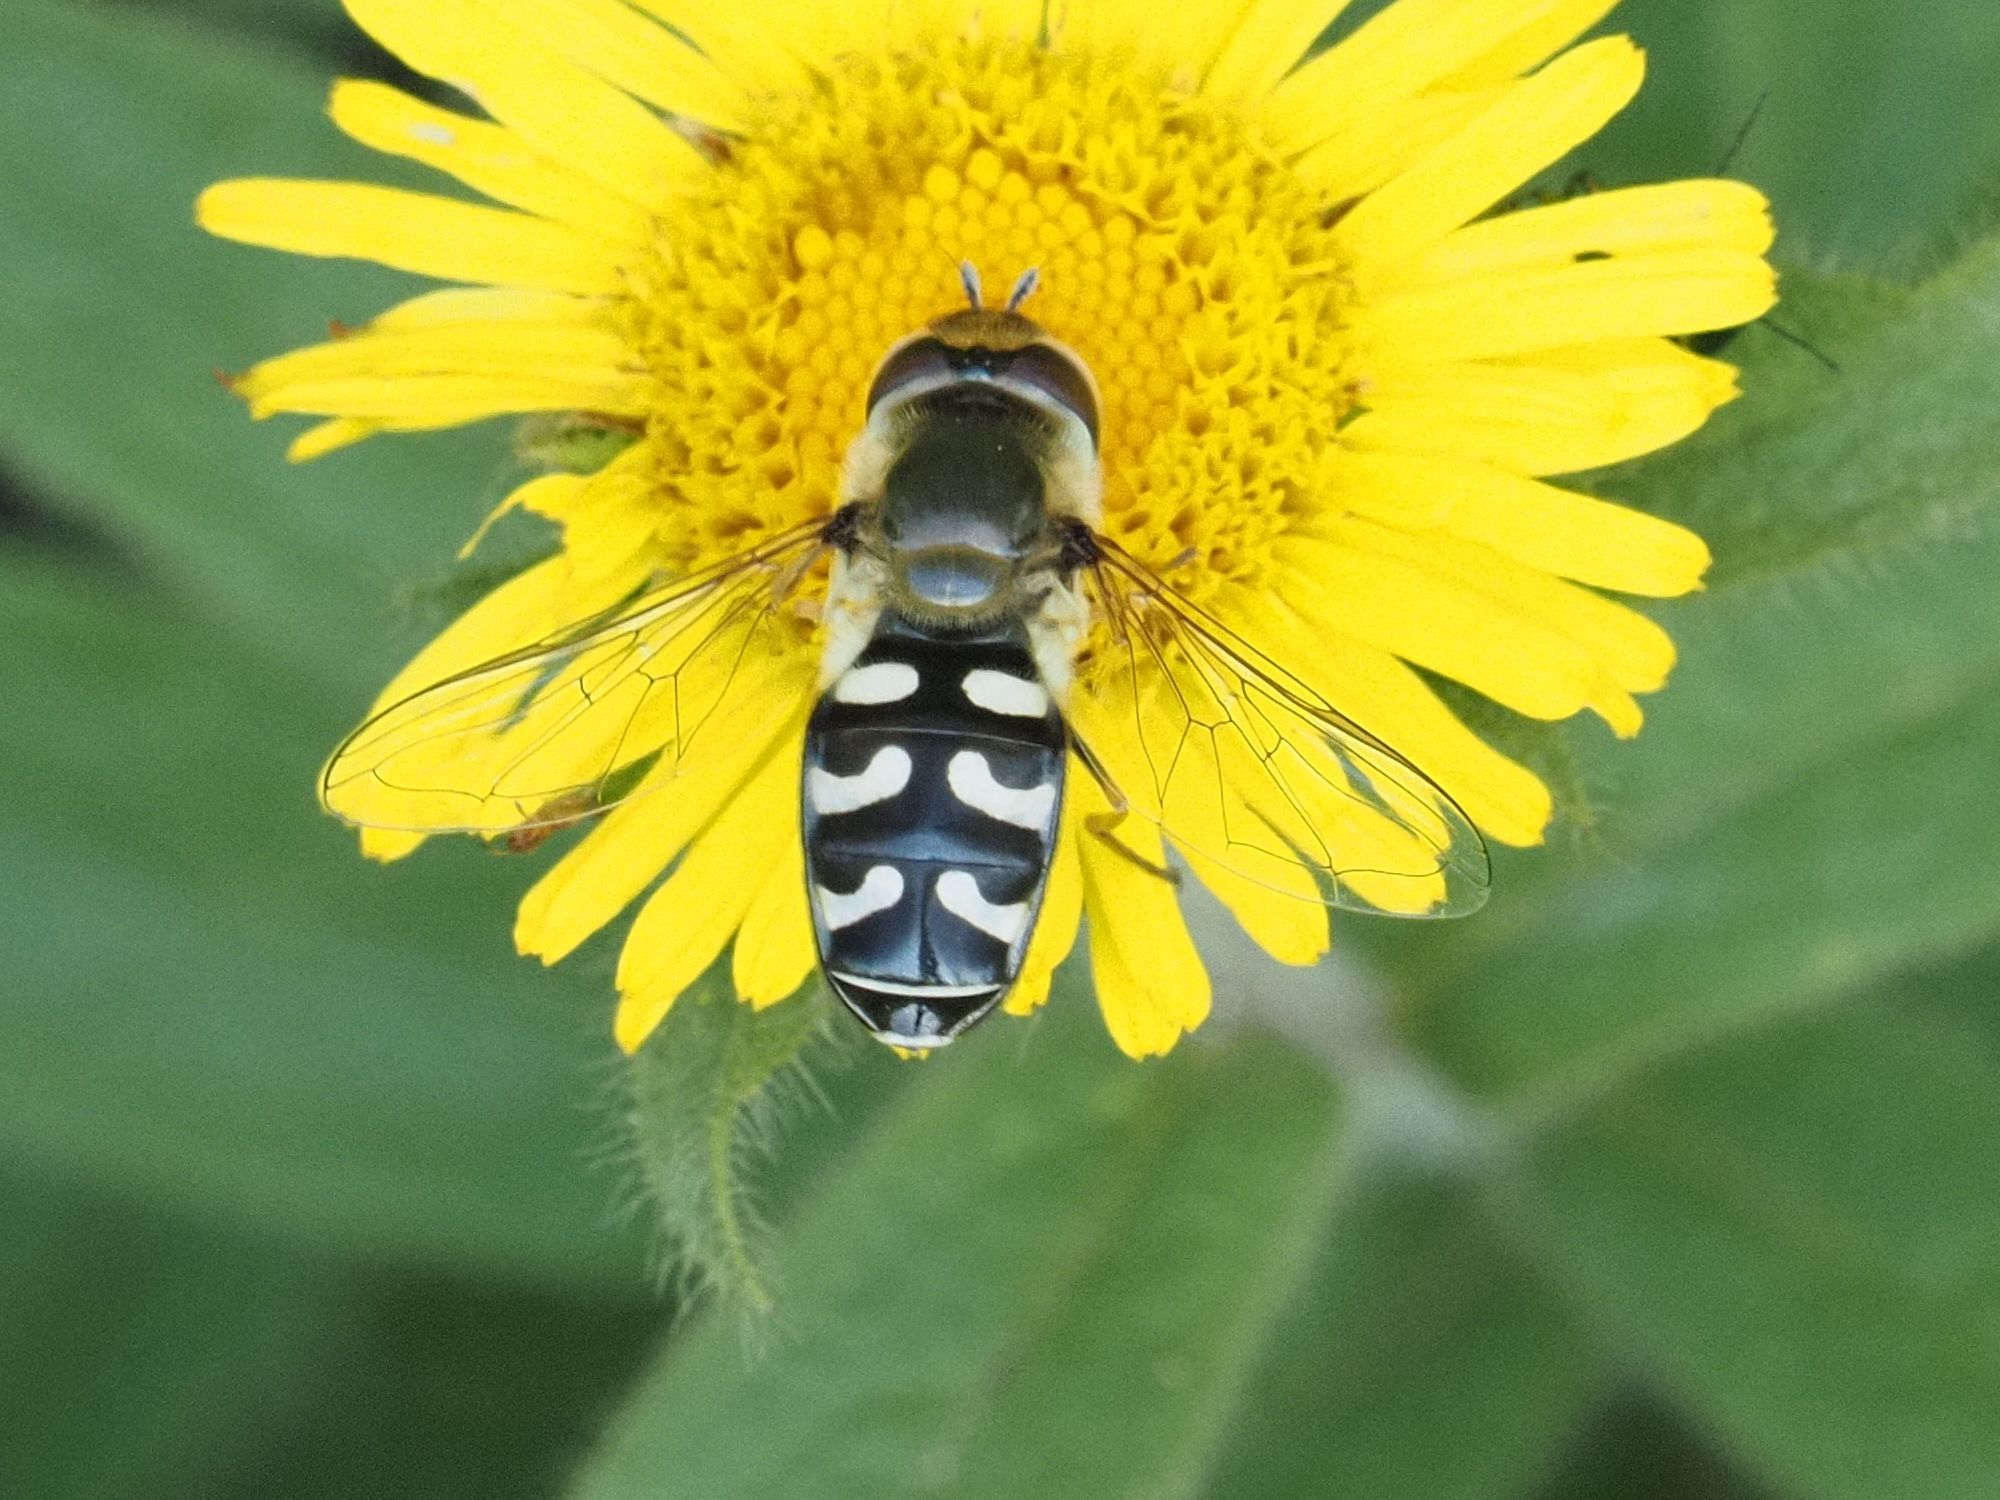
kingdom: Animalia
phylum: Arthropoda
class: Insecta
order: Diptera
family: Syrphidae
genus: Scaeva
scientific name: Scaeva pyrastri
